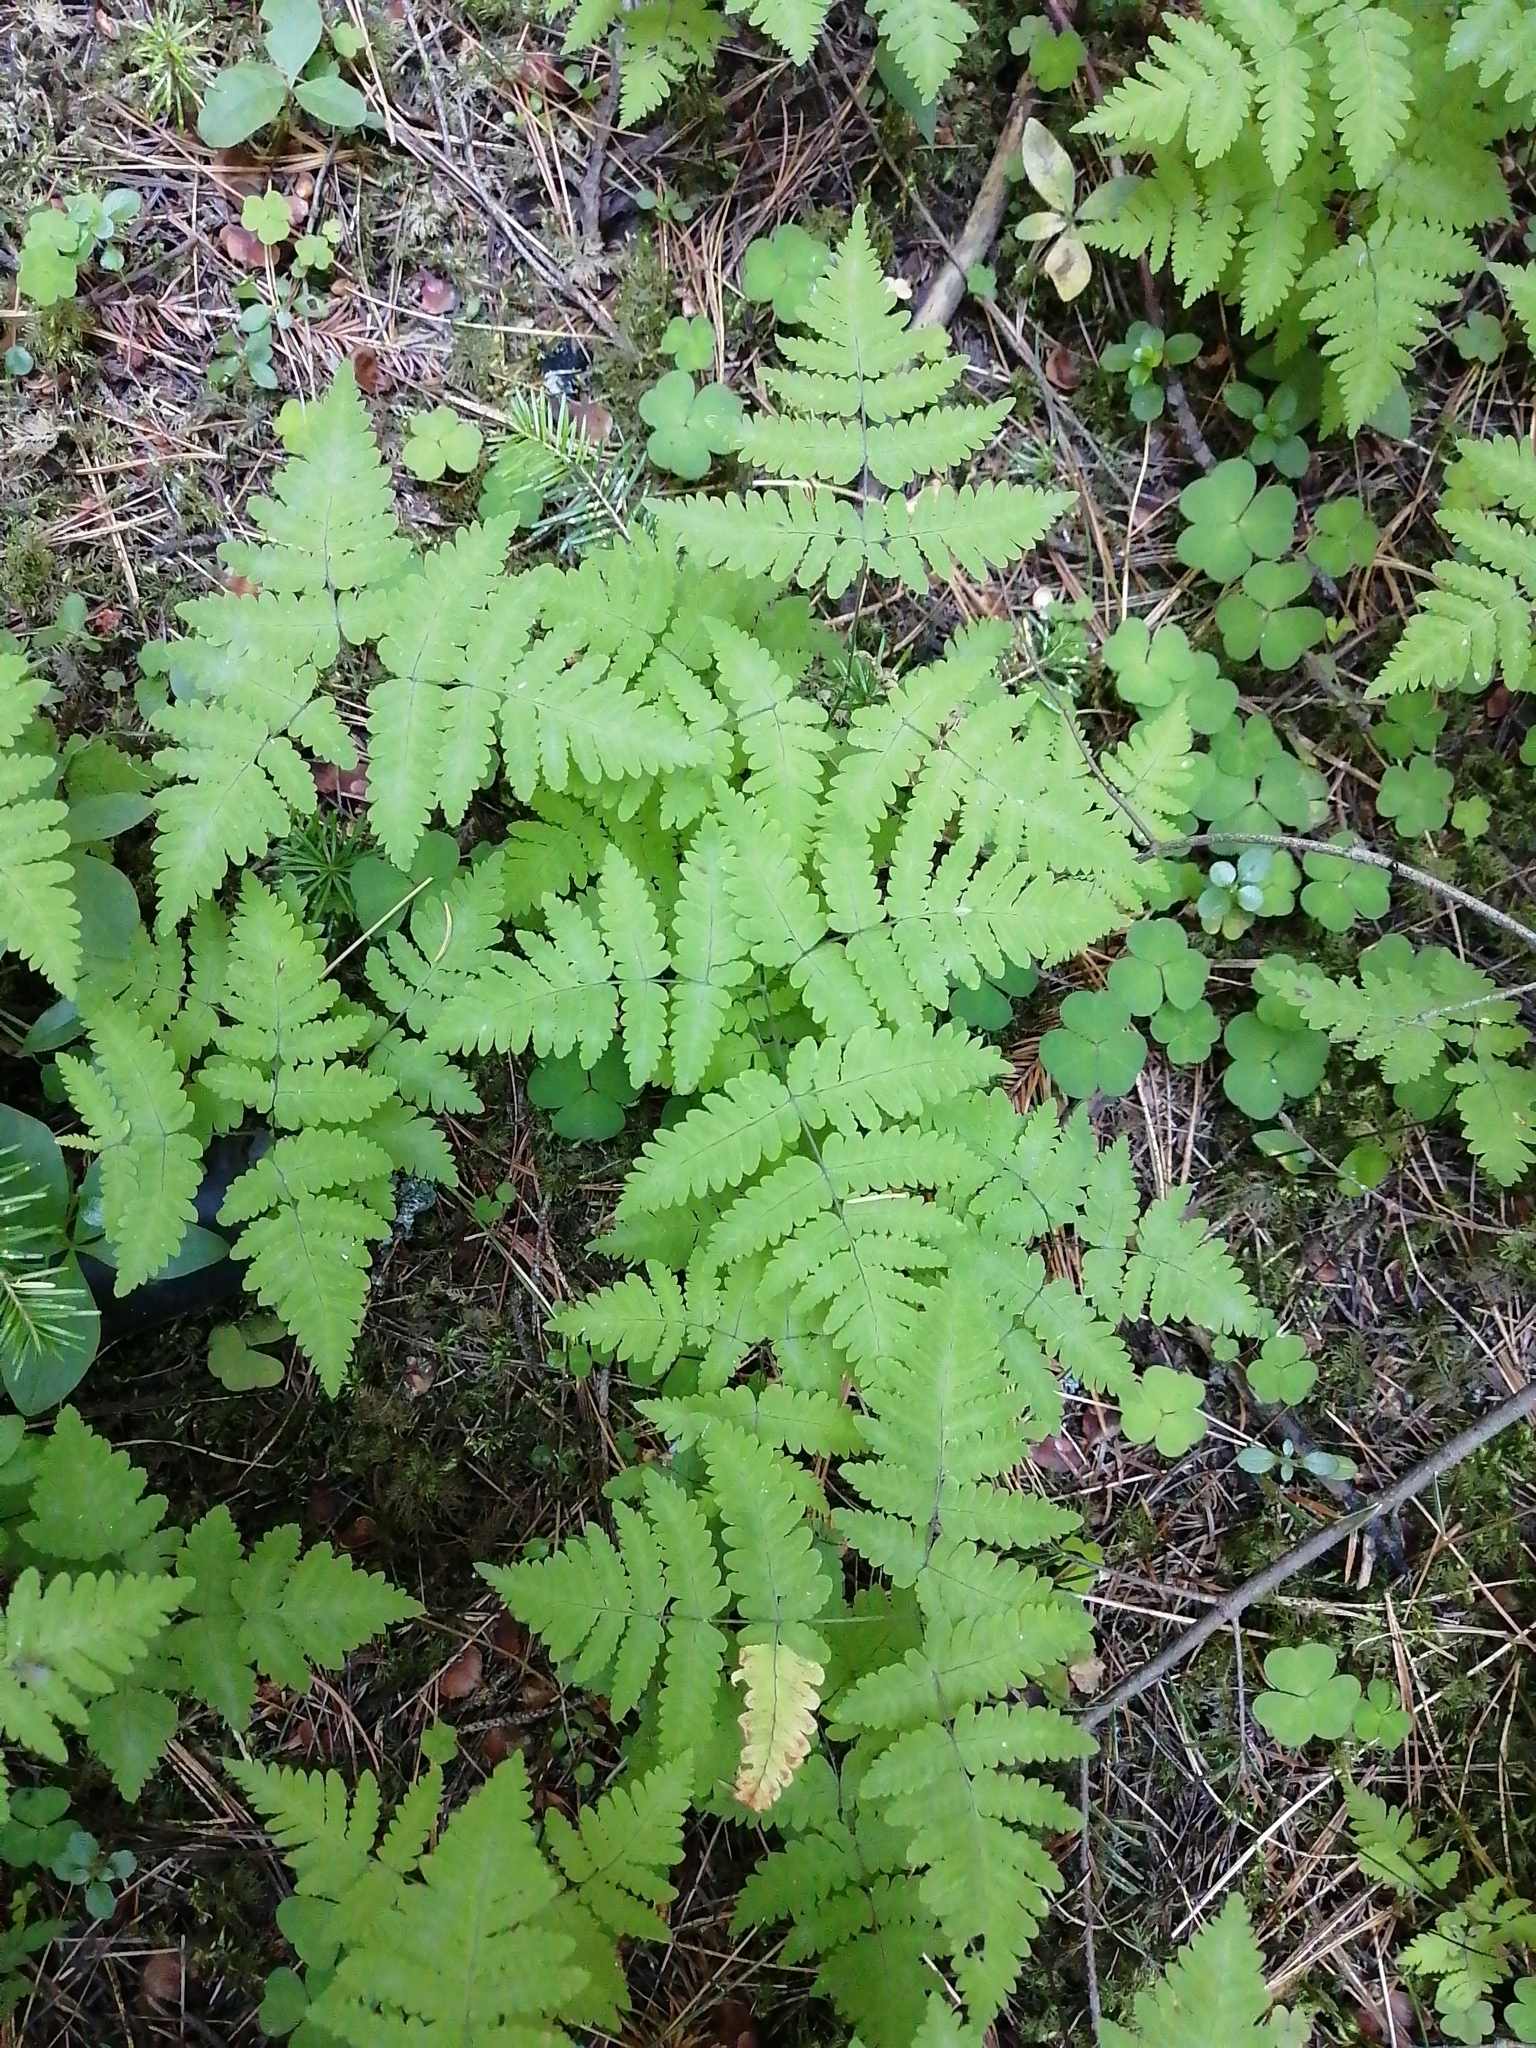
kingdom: Plantae
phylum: Tracheophyta
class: Polypodiopsida
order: Polypodiales
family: Cystopteridaceae
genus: Gymnocarpium
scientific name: Gymnocarpium dryopteris
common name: Oak fern
